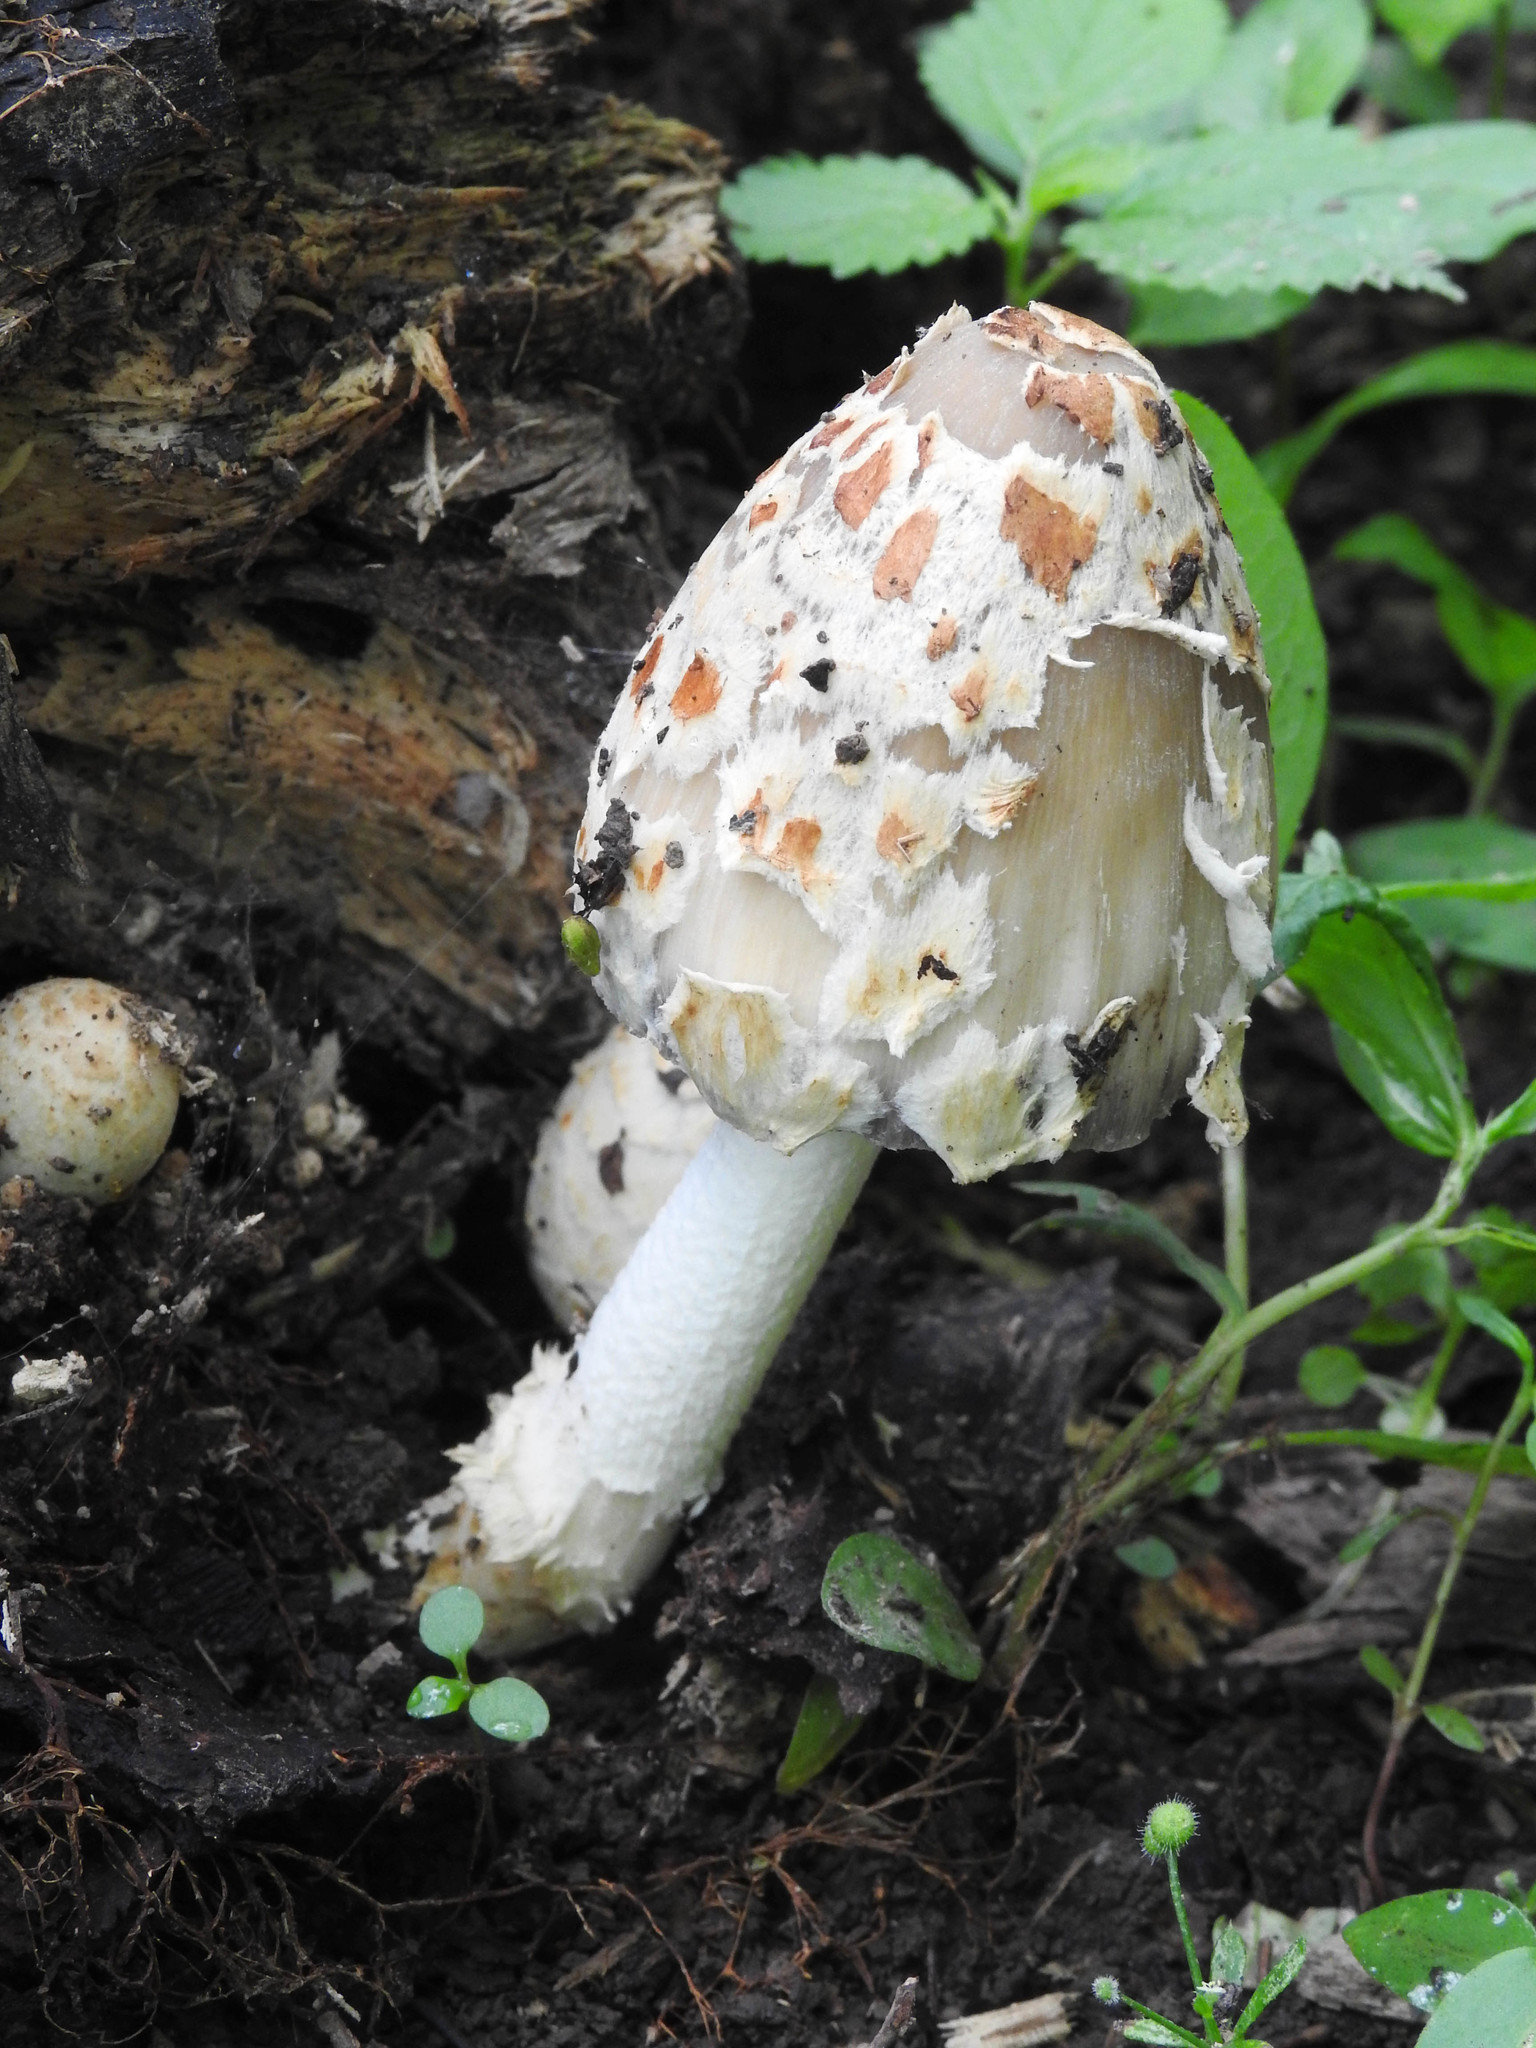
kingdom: Fungi
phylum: Basidiomycota
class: Agaricomycetes
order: Agaricales
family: Psathyrellaceae
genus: Coprinopsis
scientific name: Coprinopsis variegata
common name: Scaly ink cap
